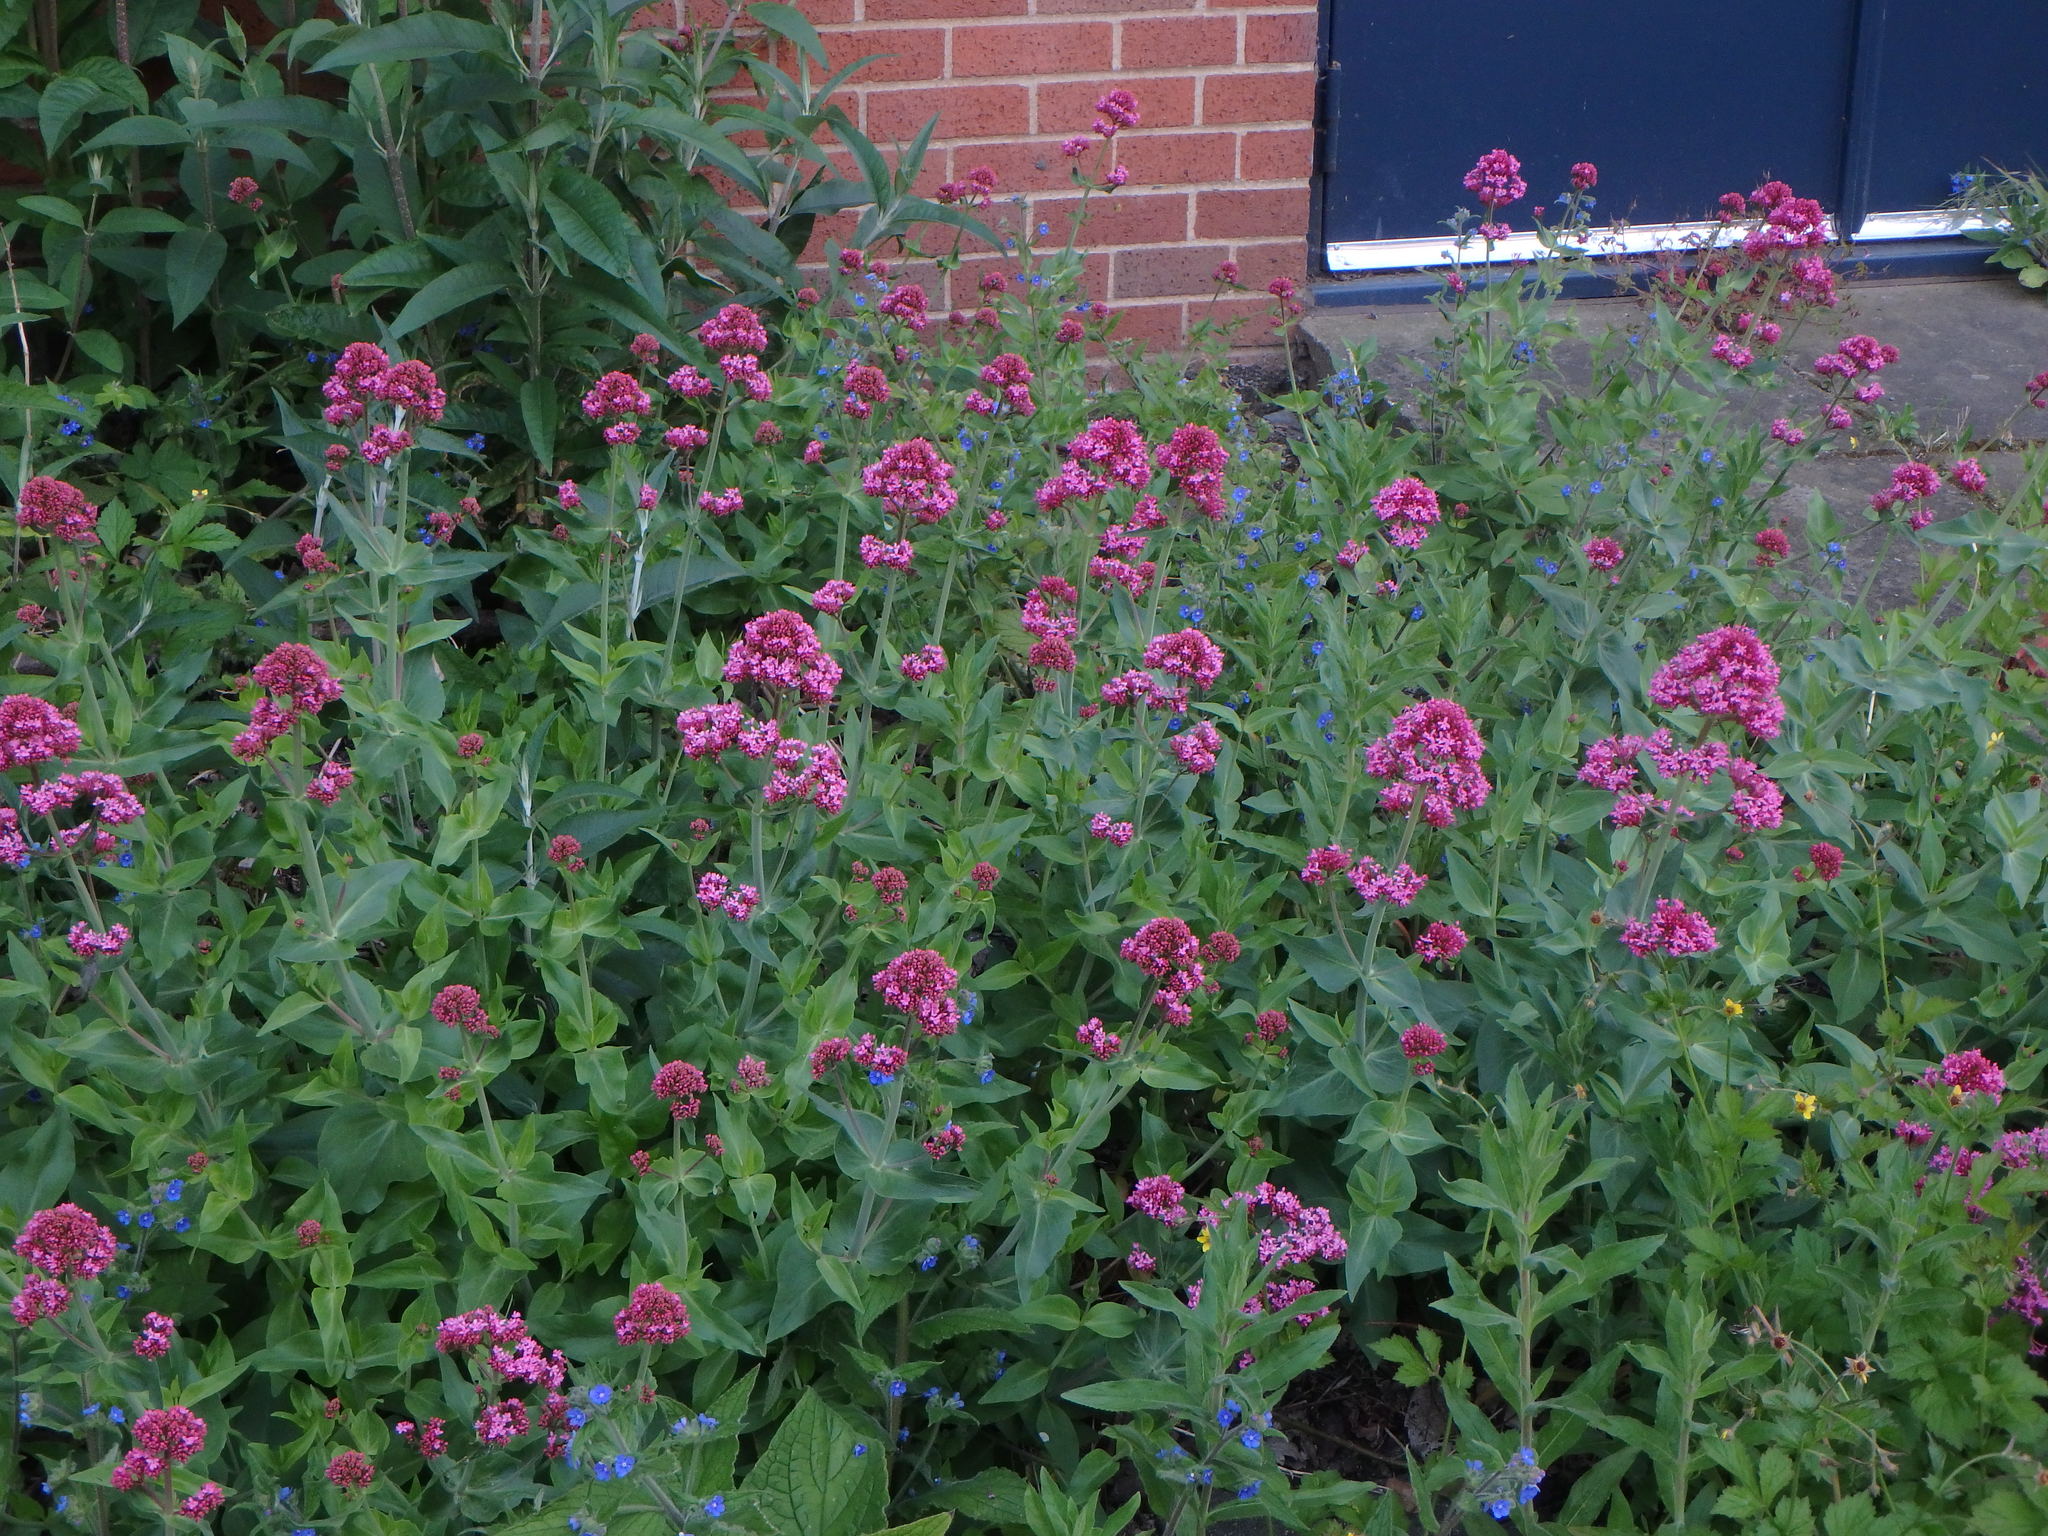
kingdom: Plantae
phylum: Tracheophyta
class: Magnoliopsida
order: Dipsacales
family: Caprifoliaceae
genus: Centranthus
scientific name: Centranthus ruber
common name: Red valerian
